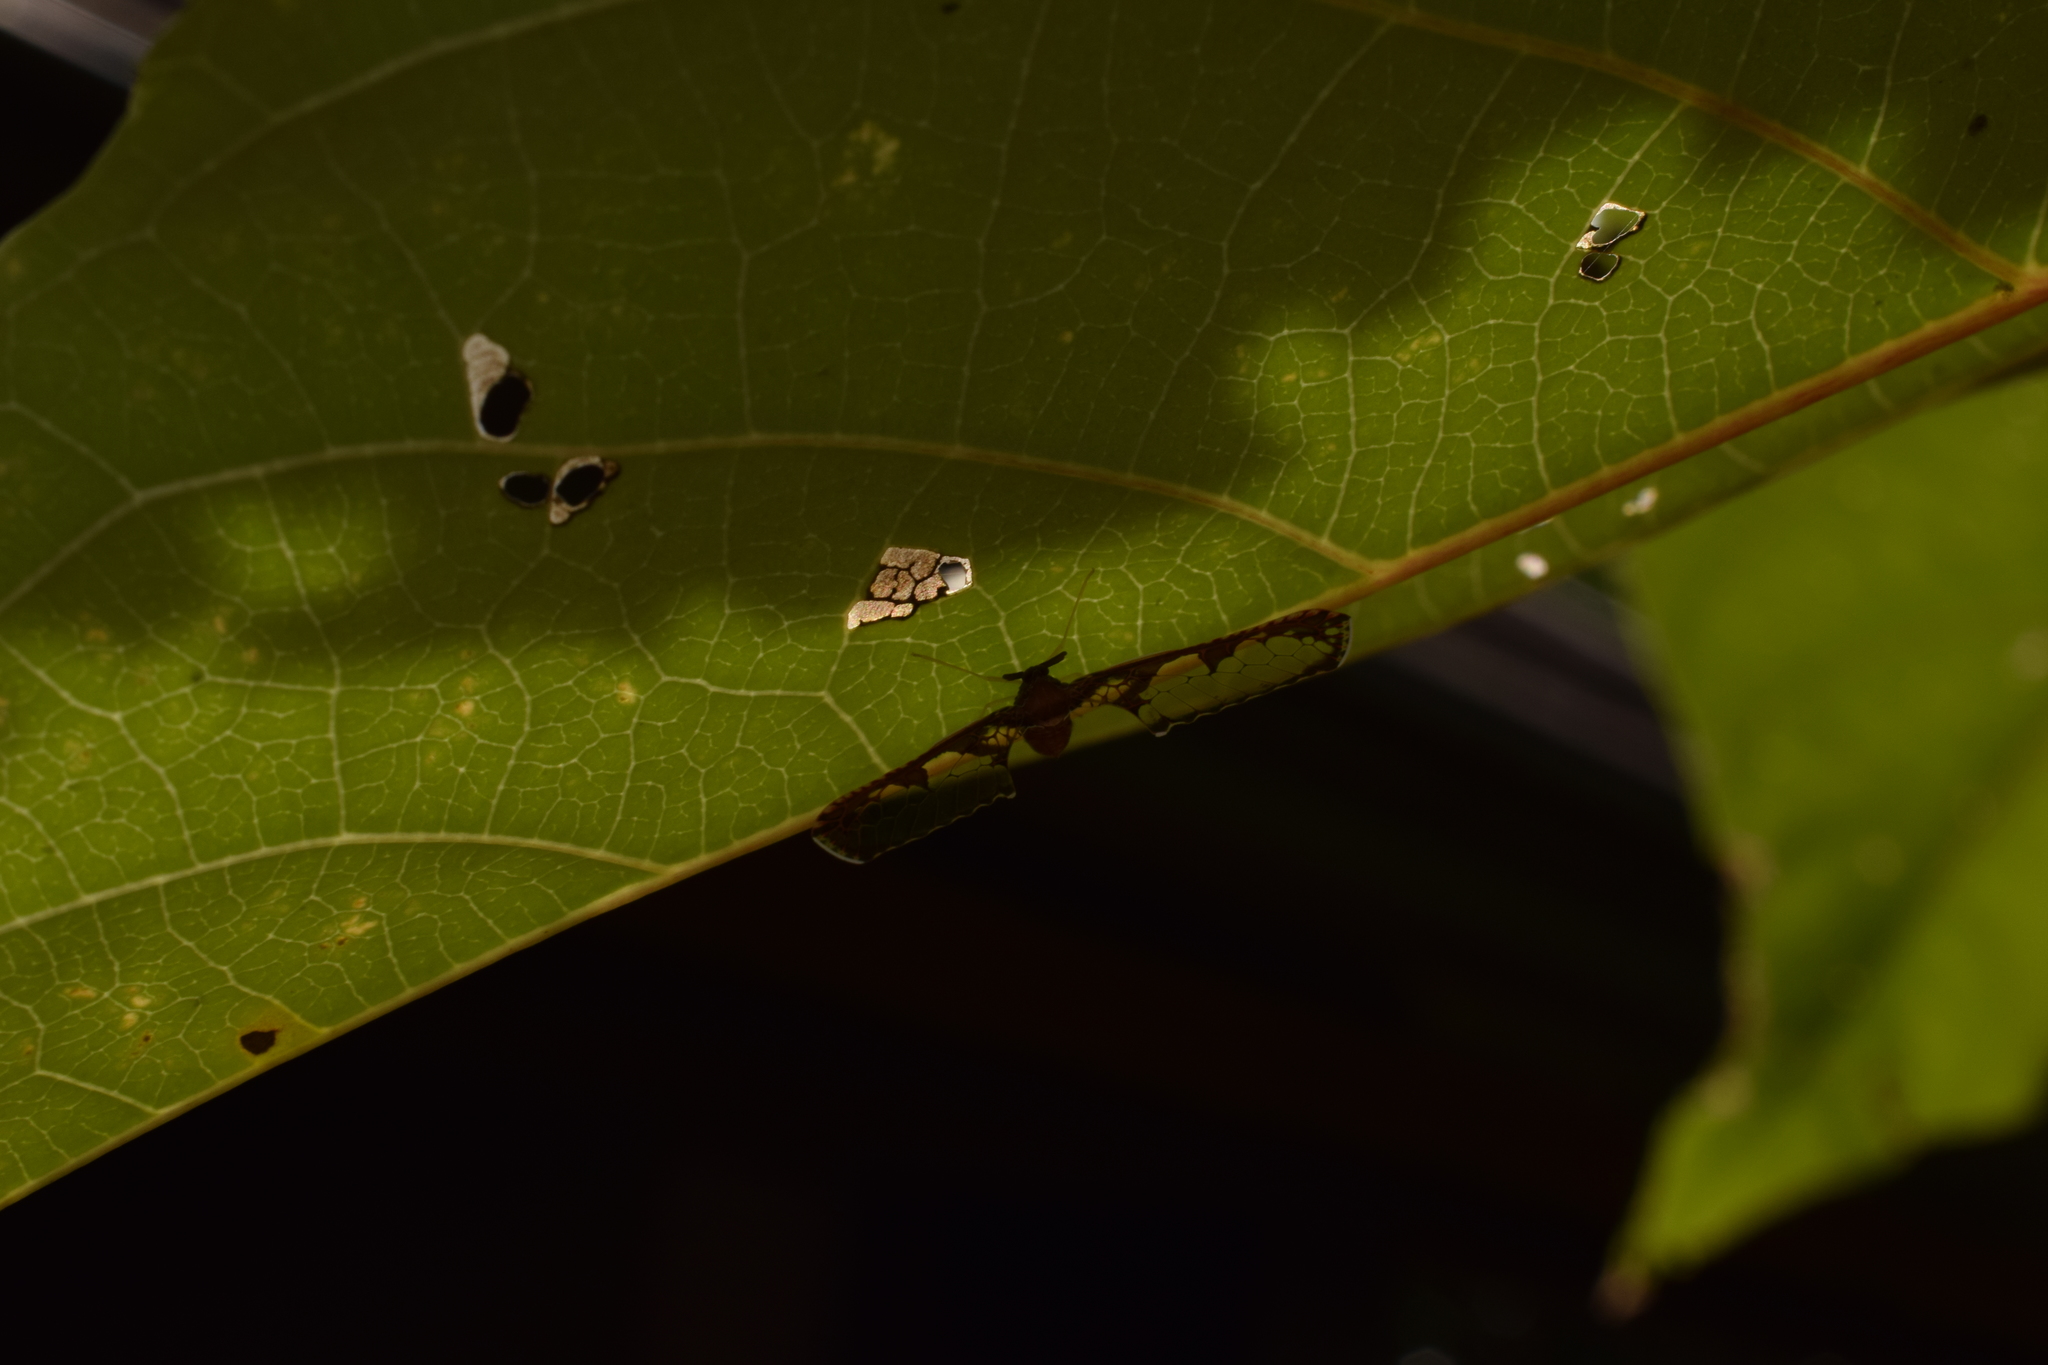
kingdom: Animalia
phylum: Arthropoda
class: Insecta
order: Hemiptera
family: Derbidae
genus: Losbanosia
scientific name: Losbanosia hibarensis
